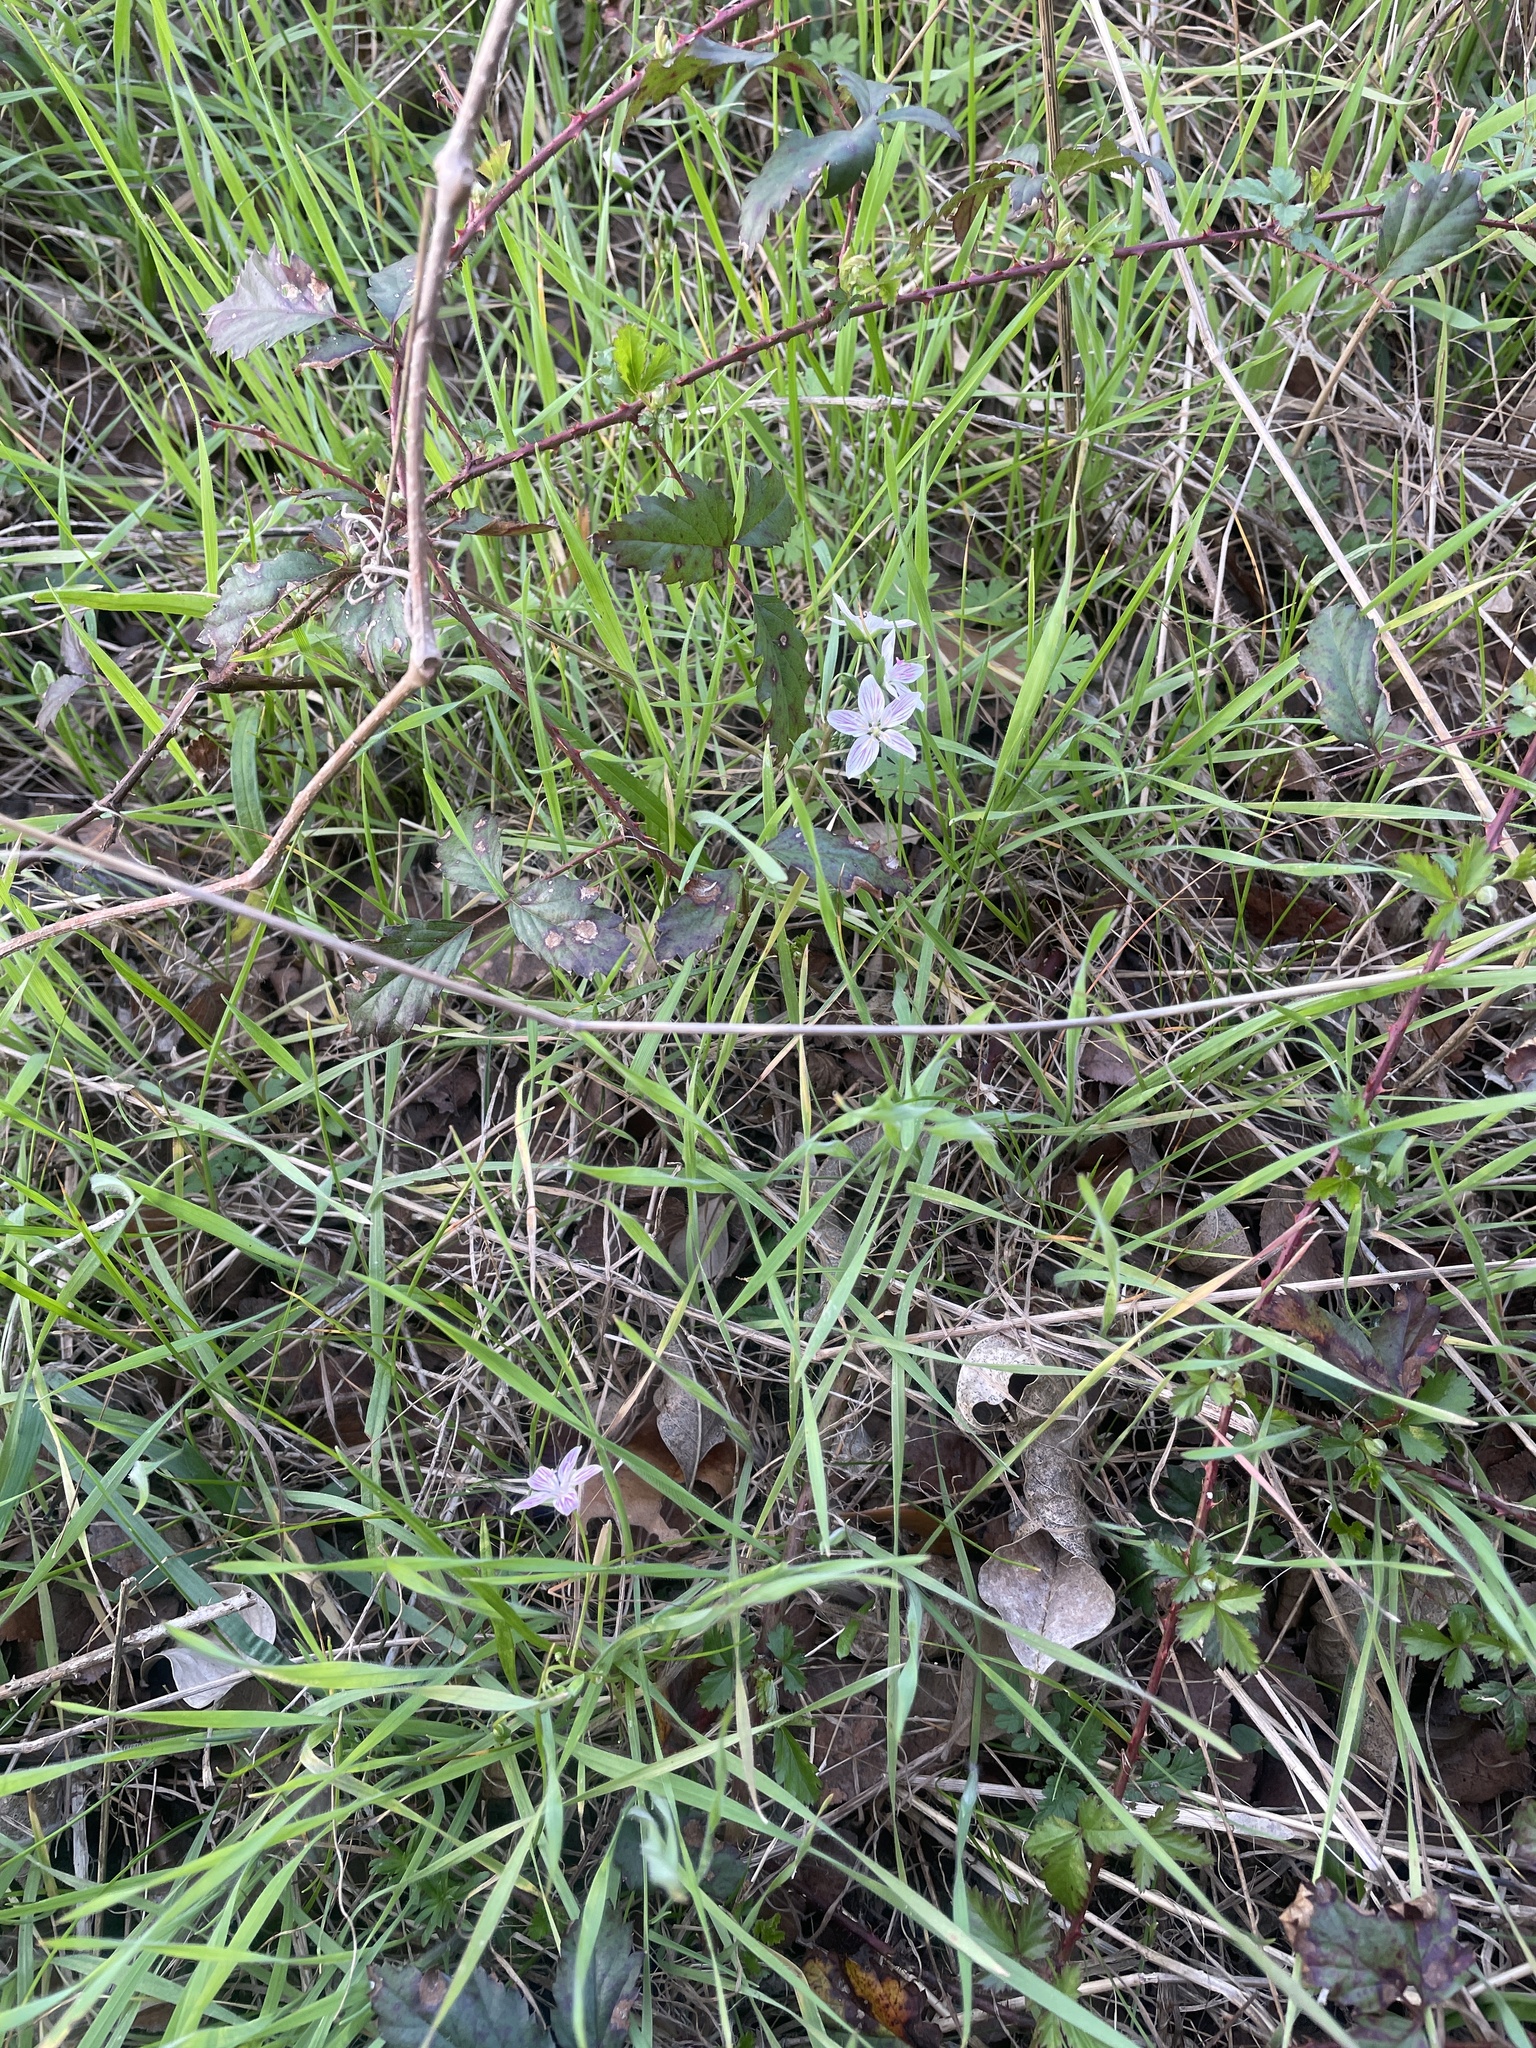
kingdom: Plantae
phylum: Tracheophyta
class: Magnoliopsida
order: Caryophyllales
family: Montiaceae
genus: Claytonia
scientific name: Claytonia virginica
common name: Virginia springbeauty
